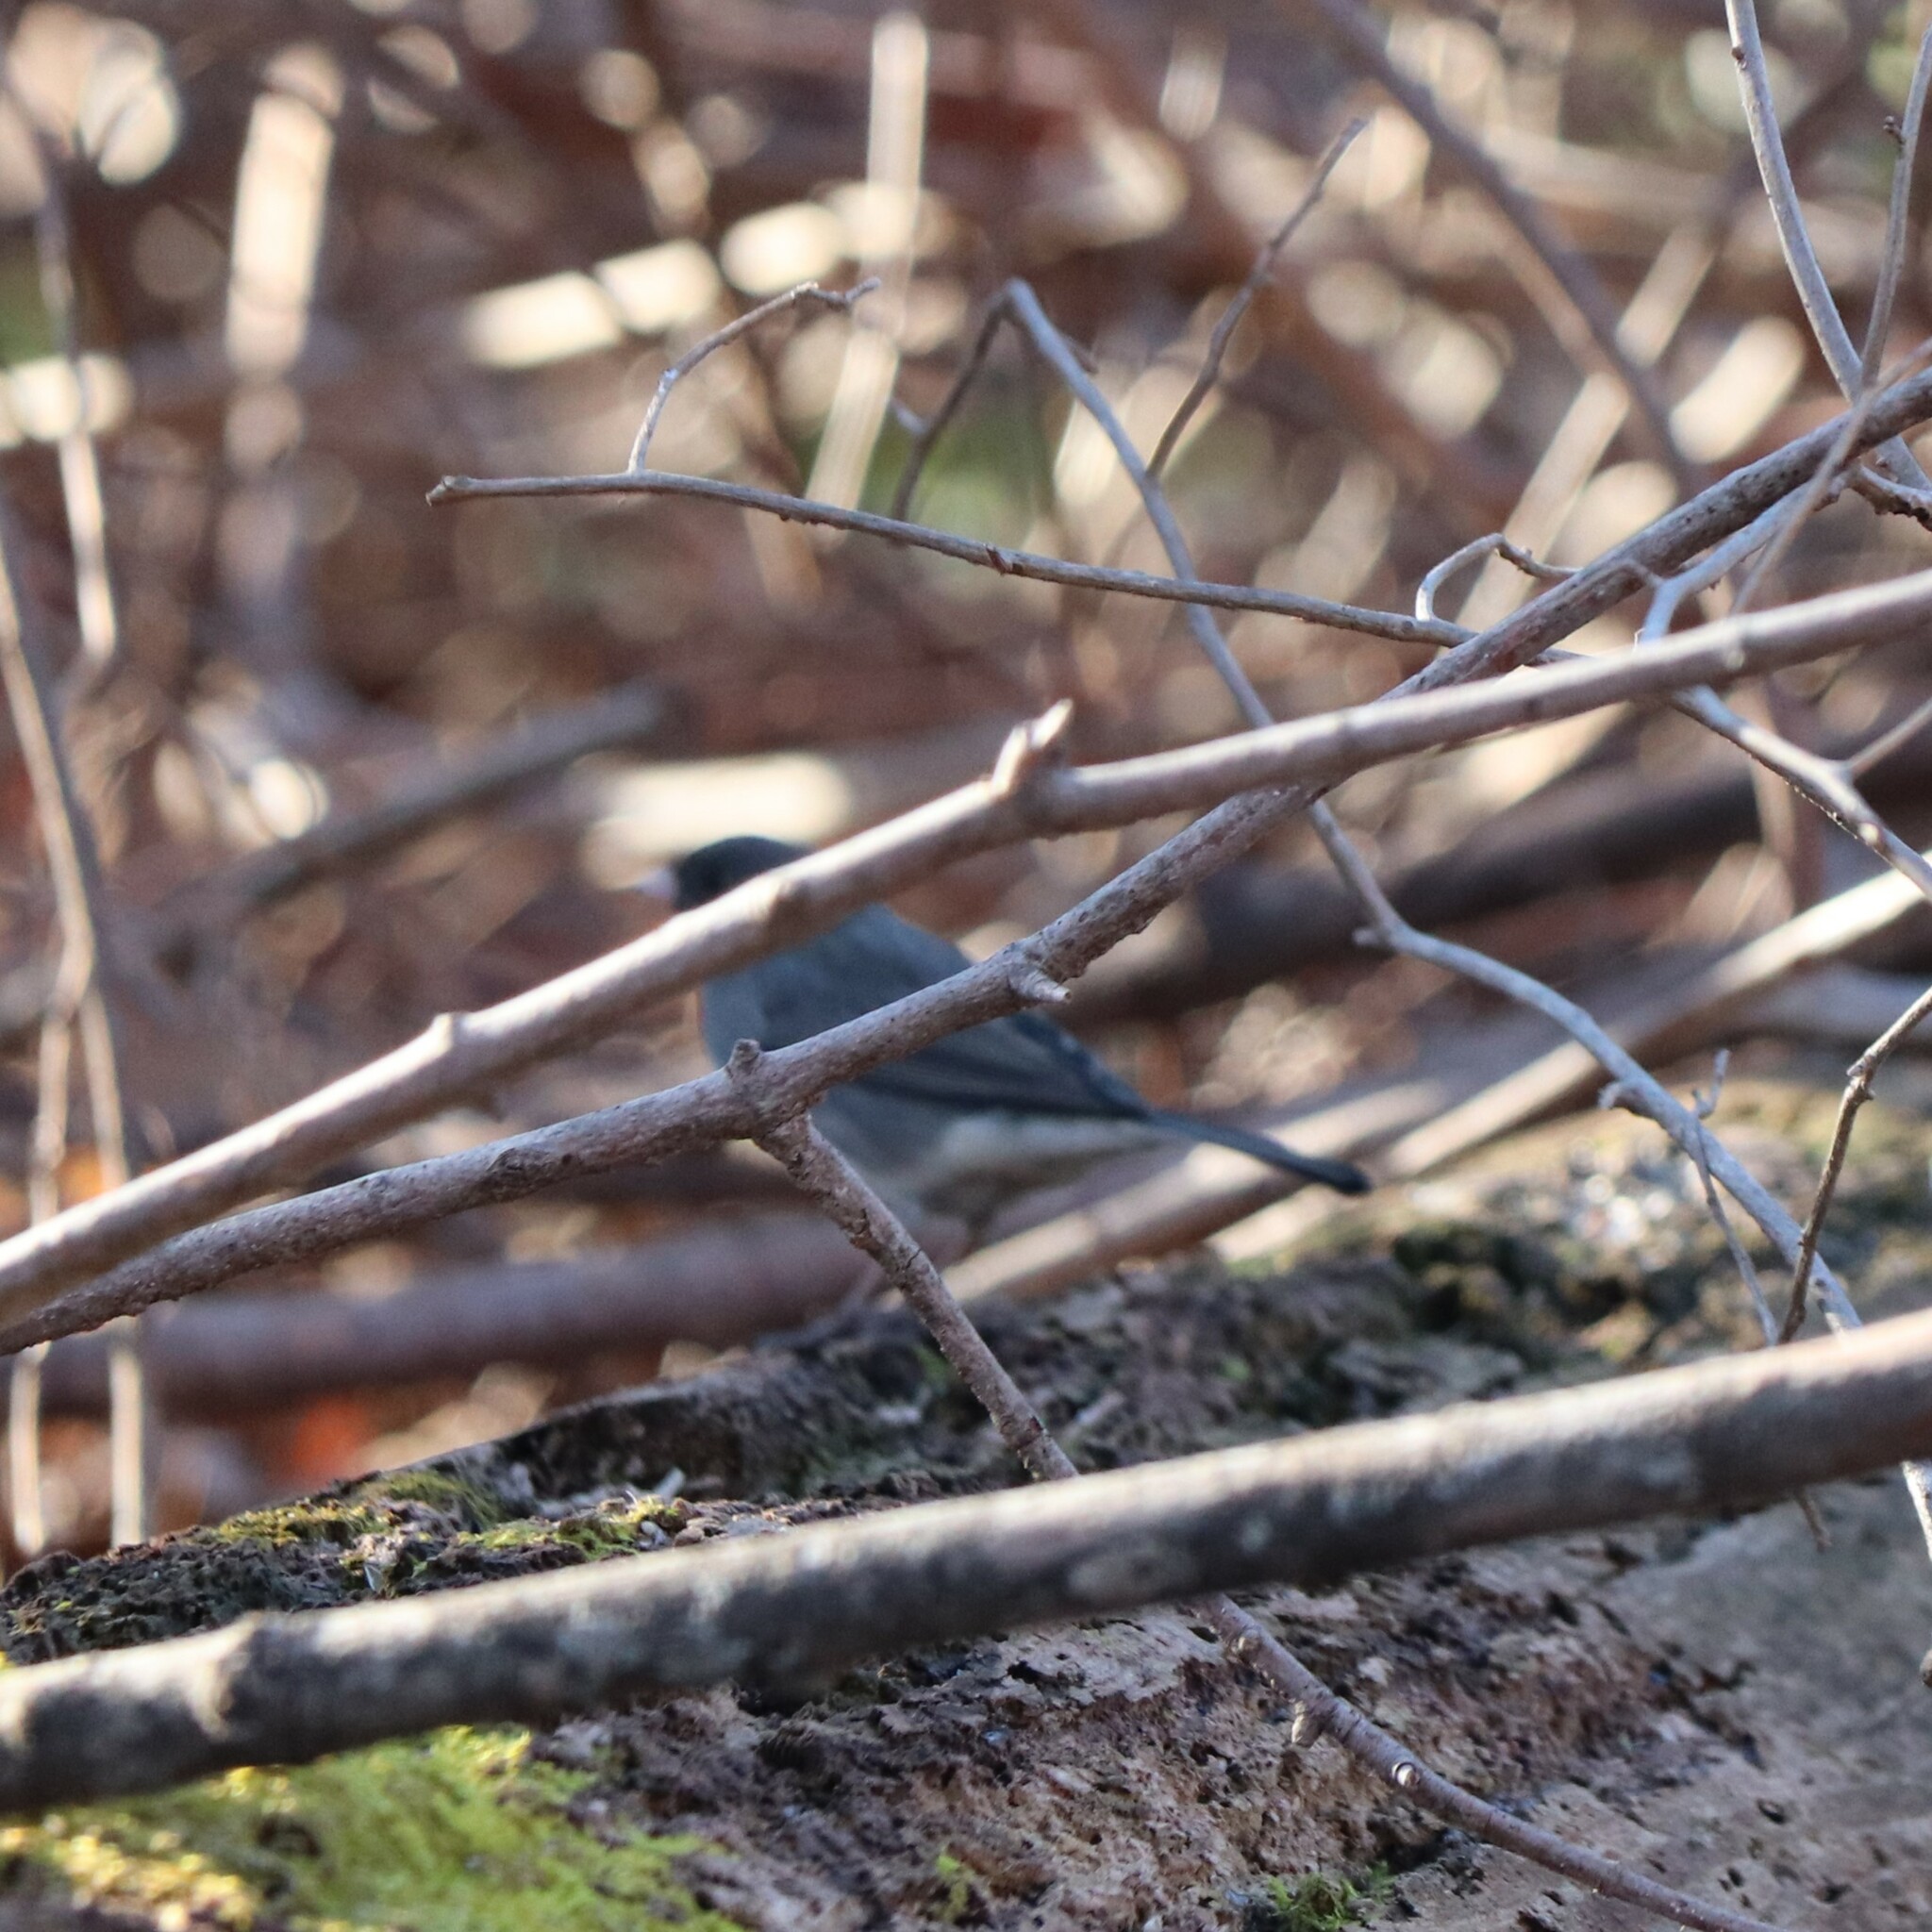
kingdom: Animalia
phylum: Chordata
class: Aves
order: Passeriformes
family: Passerellidae
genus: Junco
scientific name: Junco hyemalis
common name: Dark-eyed junco
